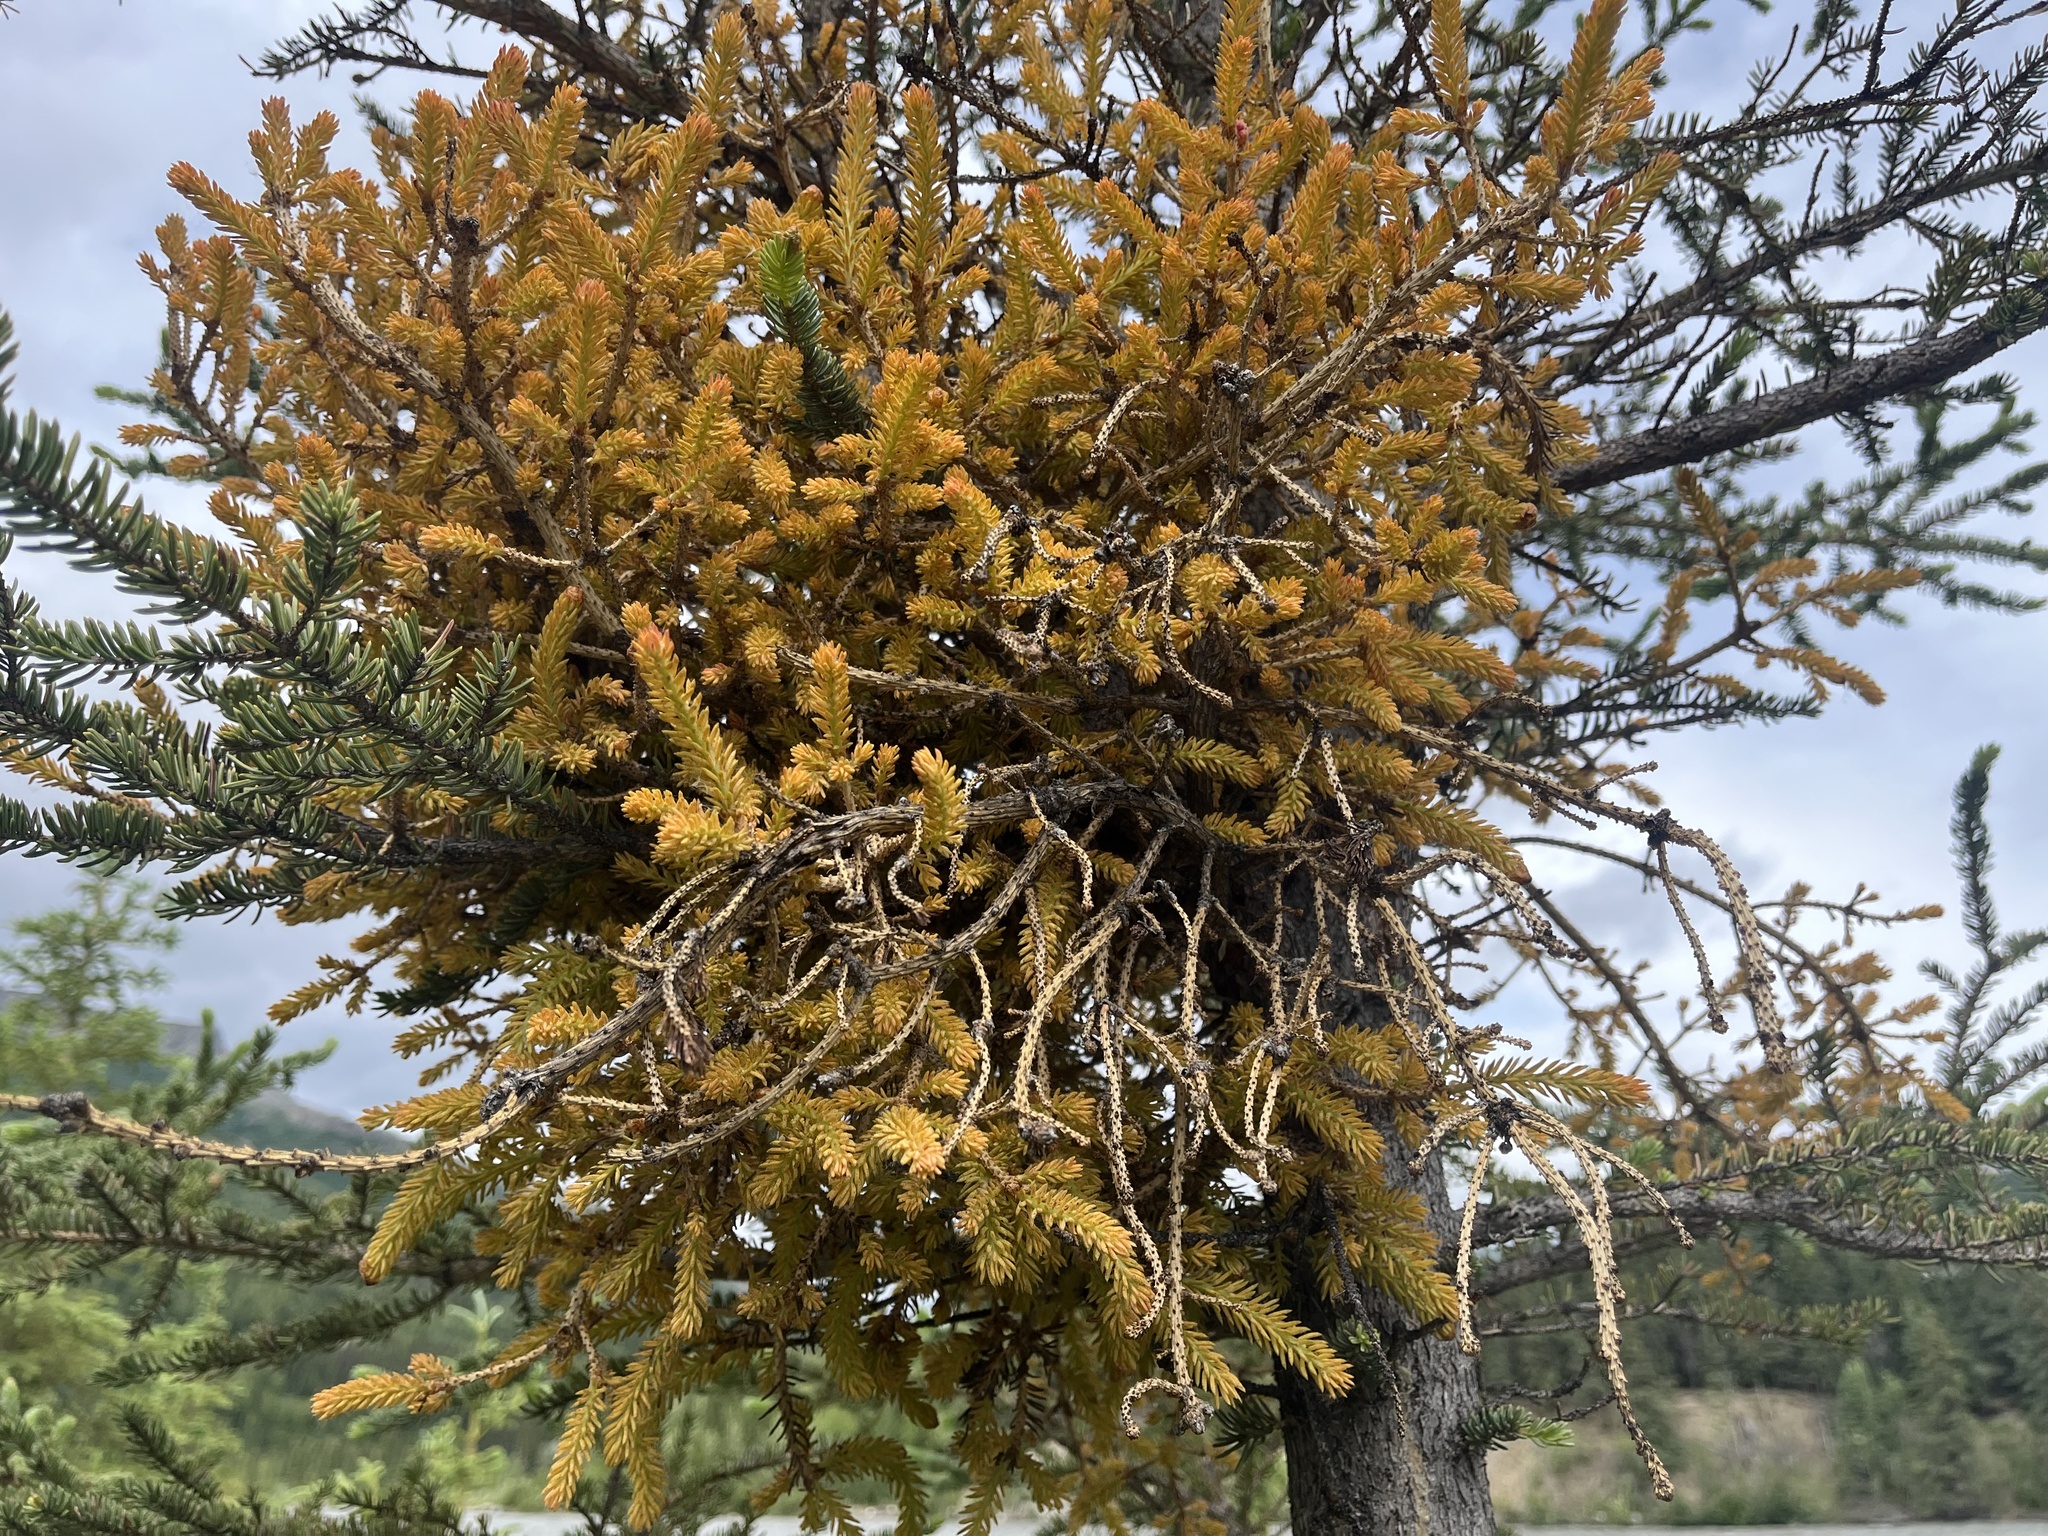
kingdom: Fungi
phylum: Basidiomycota
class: Pucciniomycetes
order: Pucciniales
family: Coleosporiaceae
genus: Chrysomyxa
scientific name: Chrysomyxa arctostaphyli
